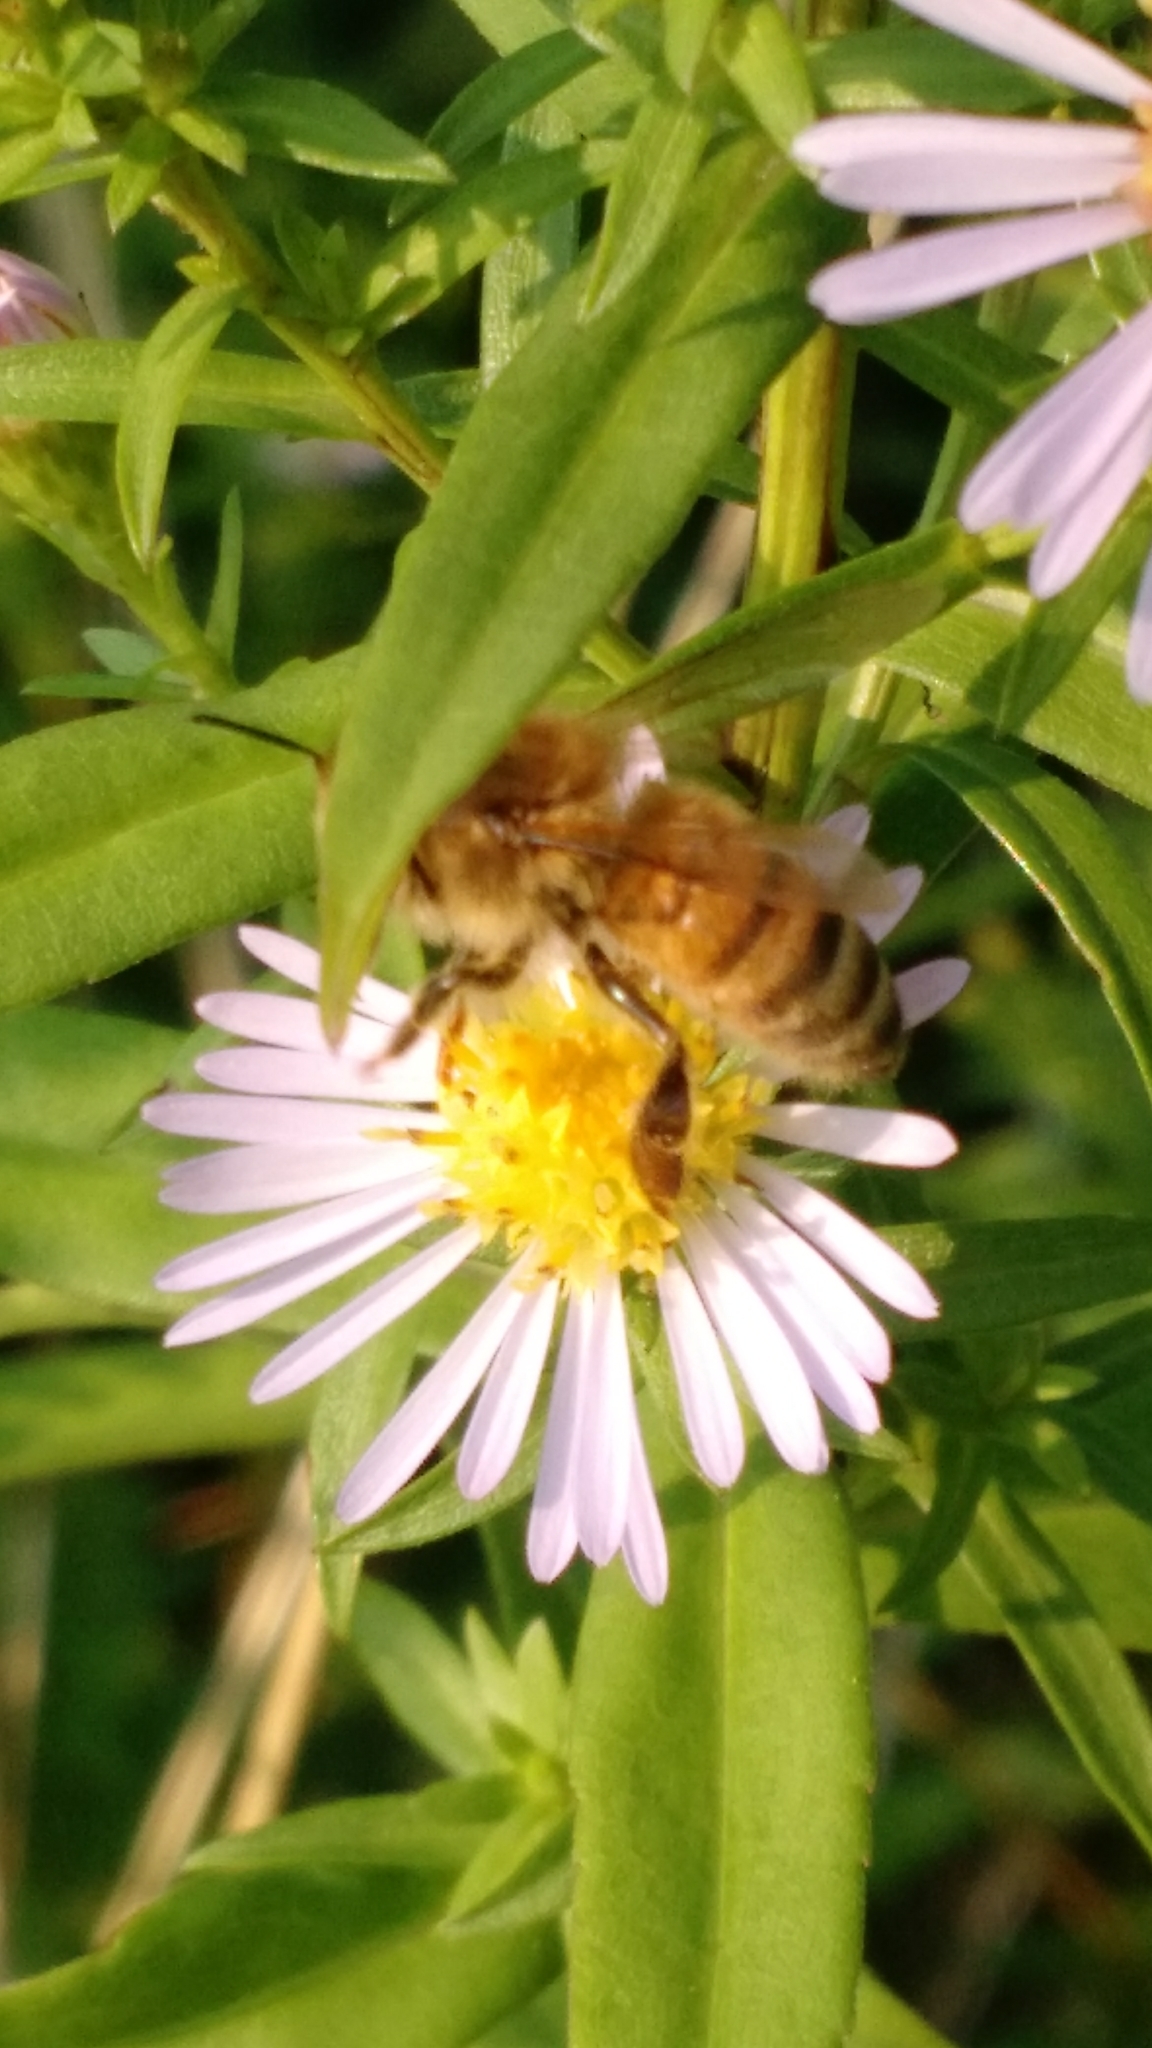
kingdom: Animalia
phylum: Arthropoda
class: Insecta
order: Hymenoptera
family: Apidae
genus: Apis
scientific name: Apis mellifera
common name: Honey bee
